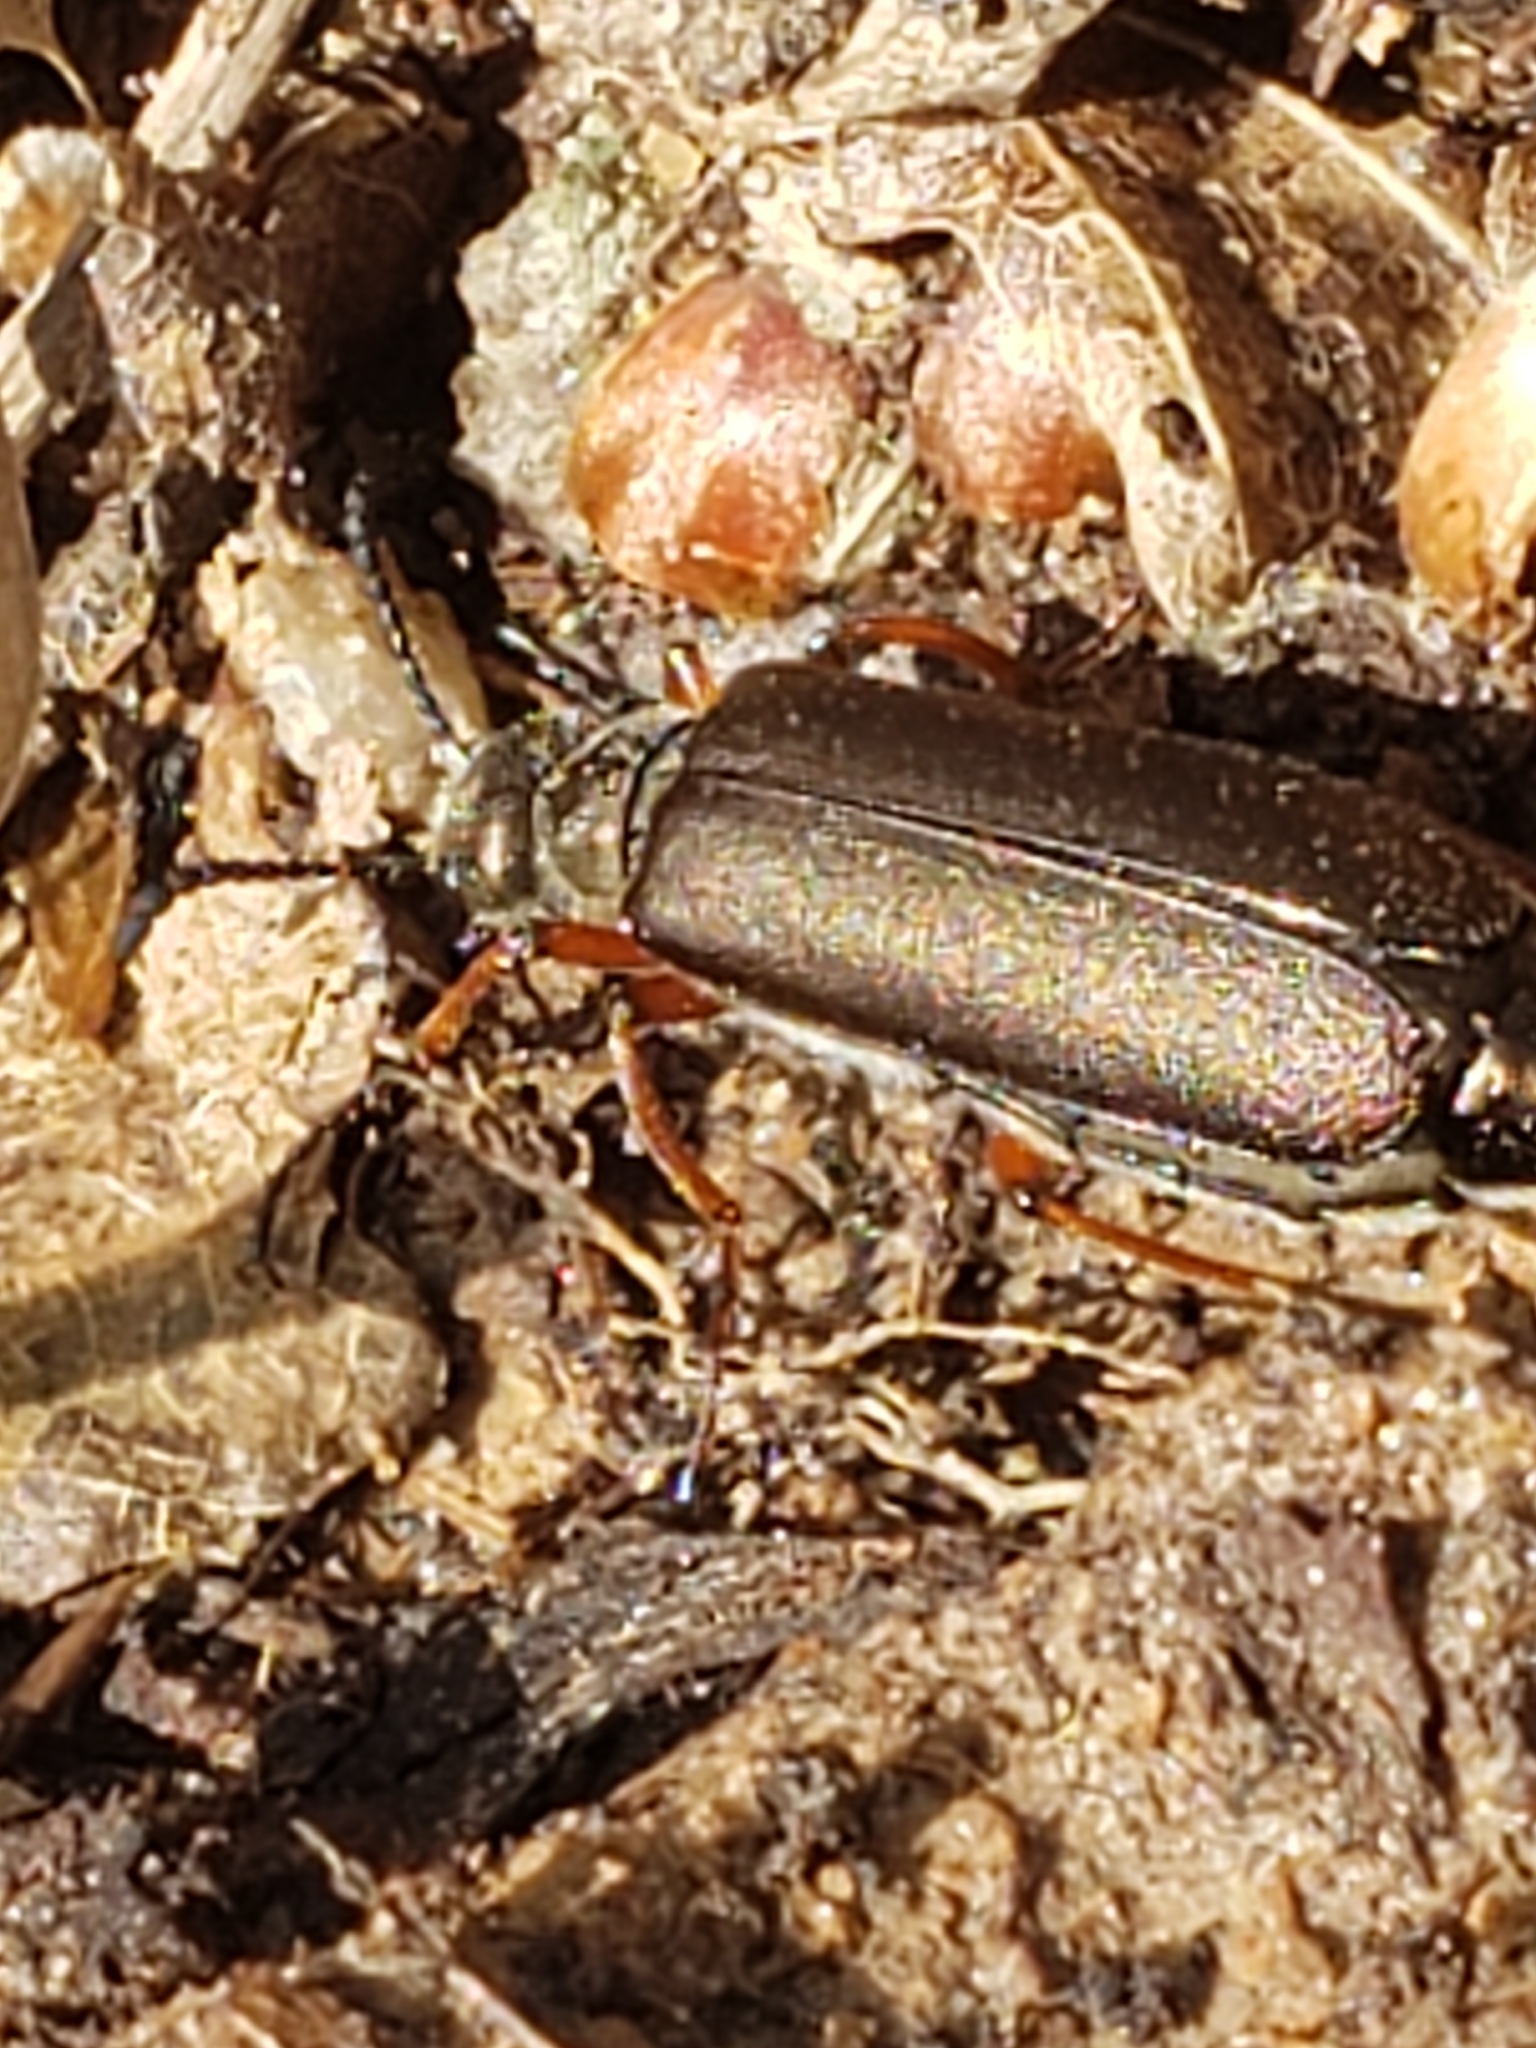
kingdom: Animalia
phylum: Arthropoda
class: Insecta
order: Coleoptera
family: Meloidae
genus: Lytta
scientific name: Lytta aenea
